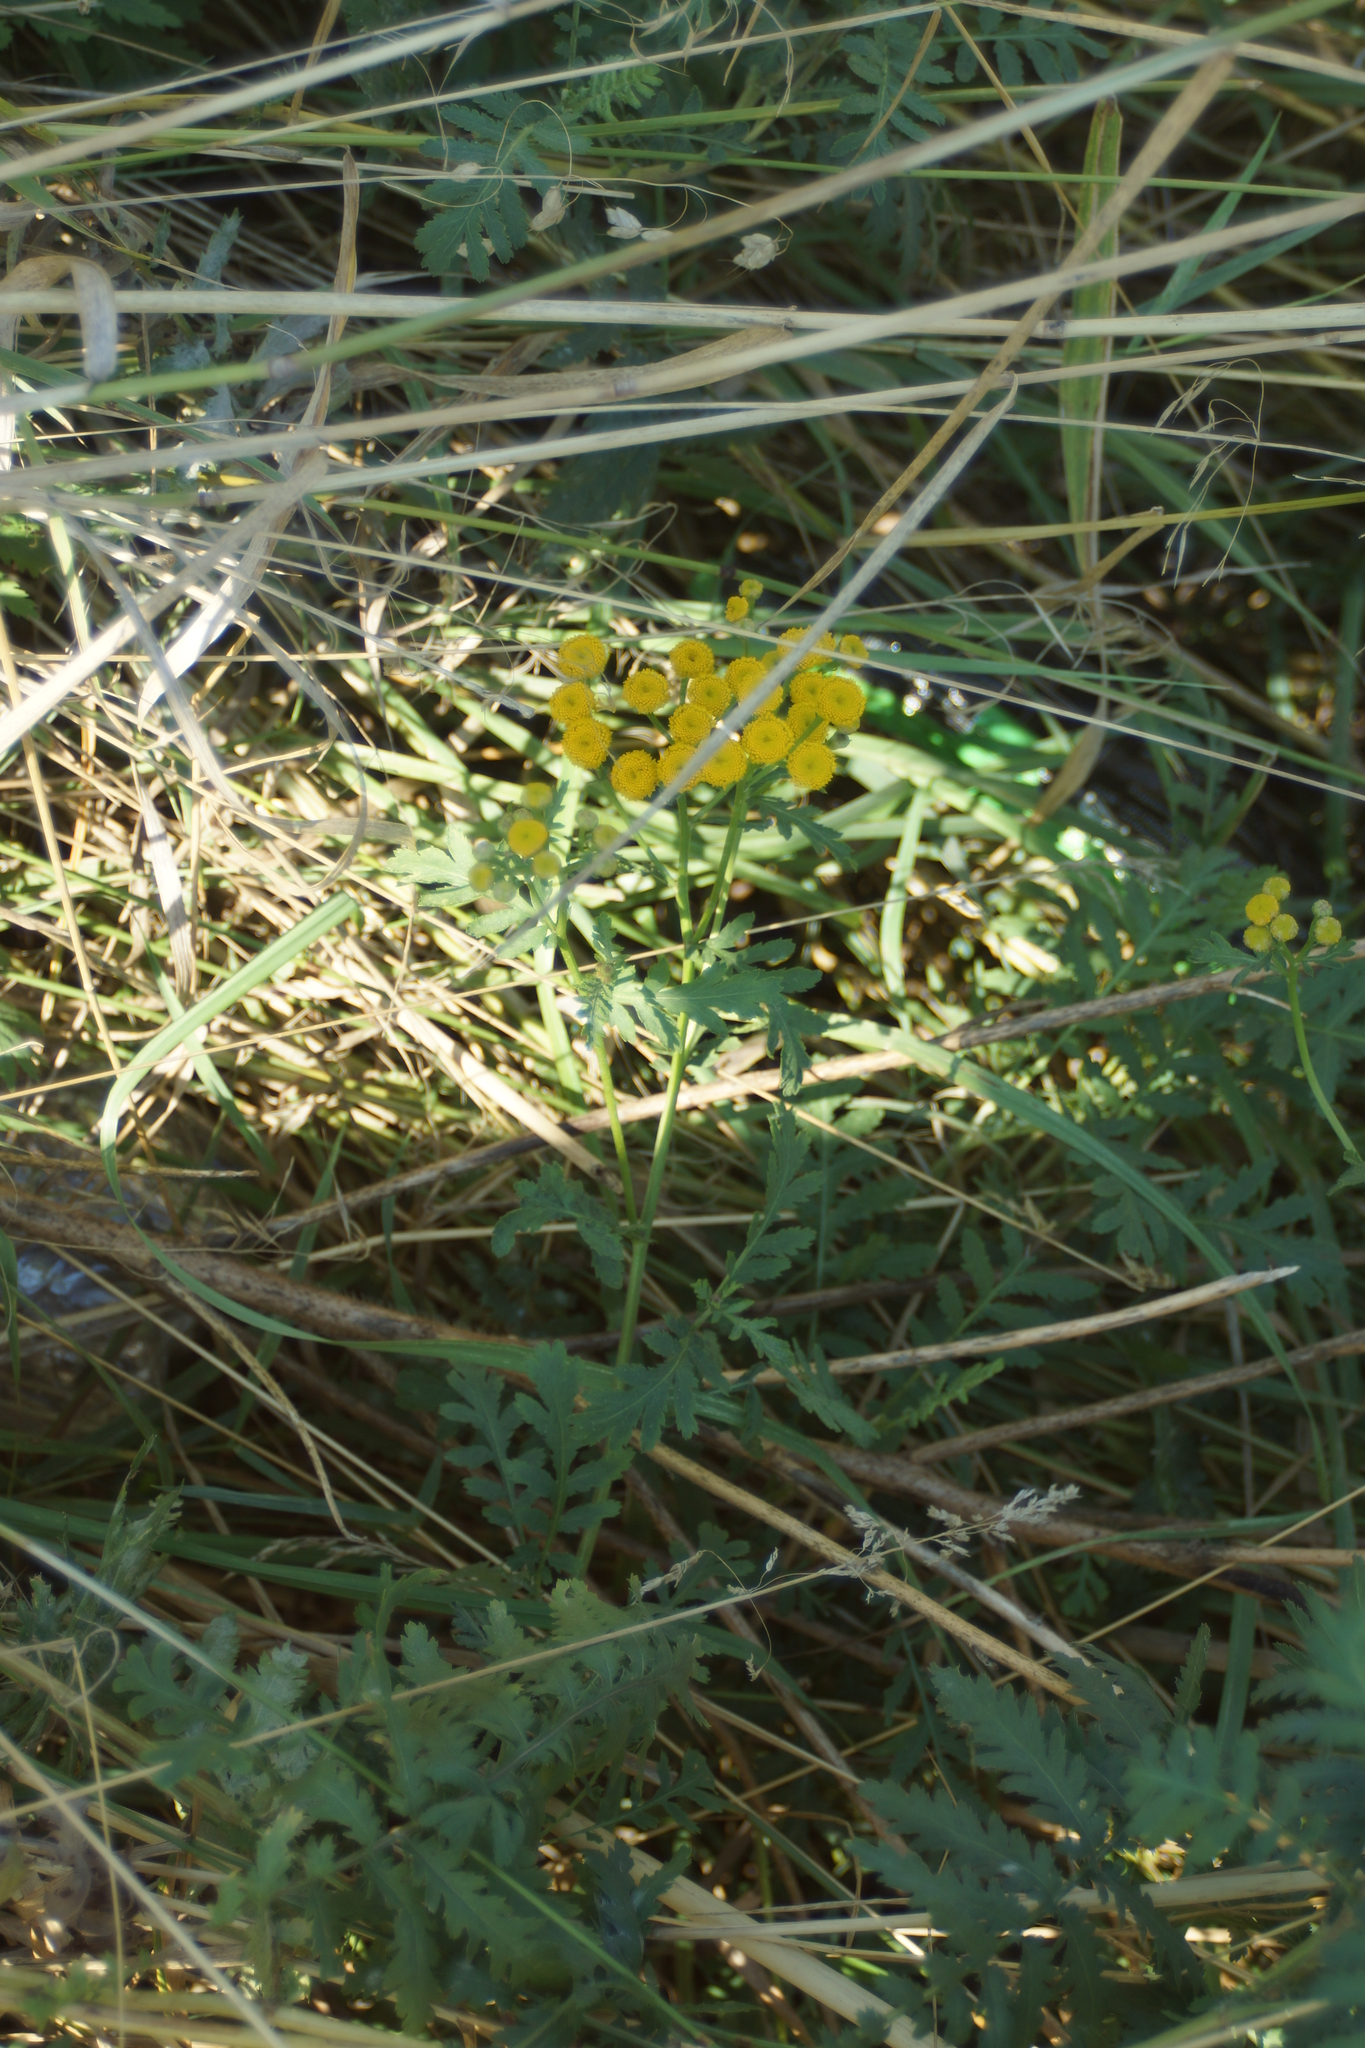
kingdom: Plantae
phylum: Tracheophyta
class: Magnoliopsida
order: Asterales
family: Asteraceae
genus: Tanacetum
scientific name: Tanacetum vulgare
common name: Common tansy
